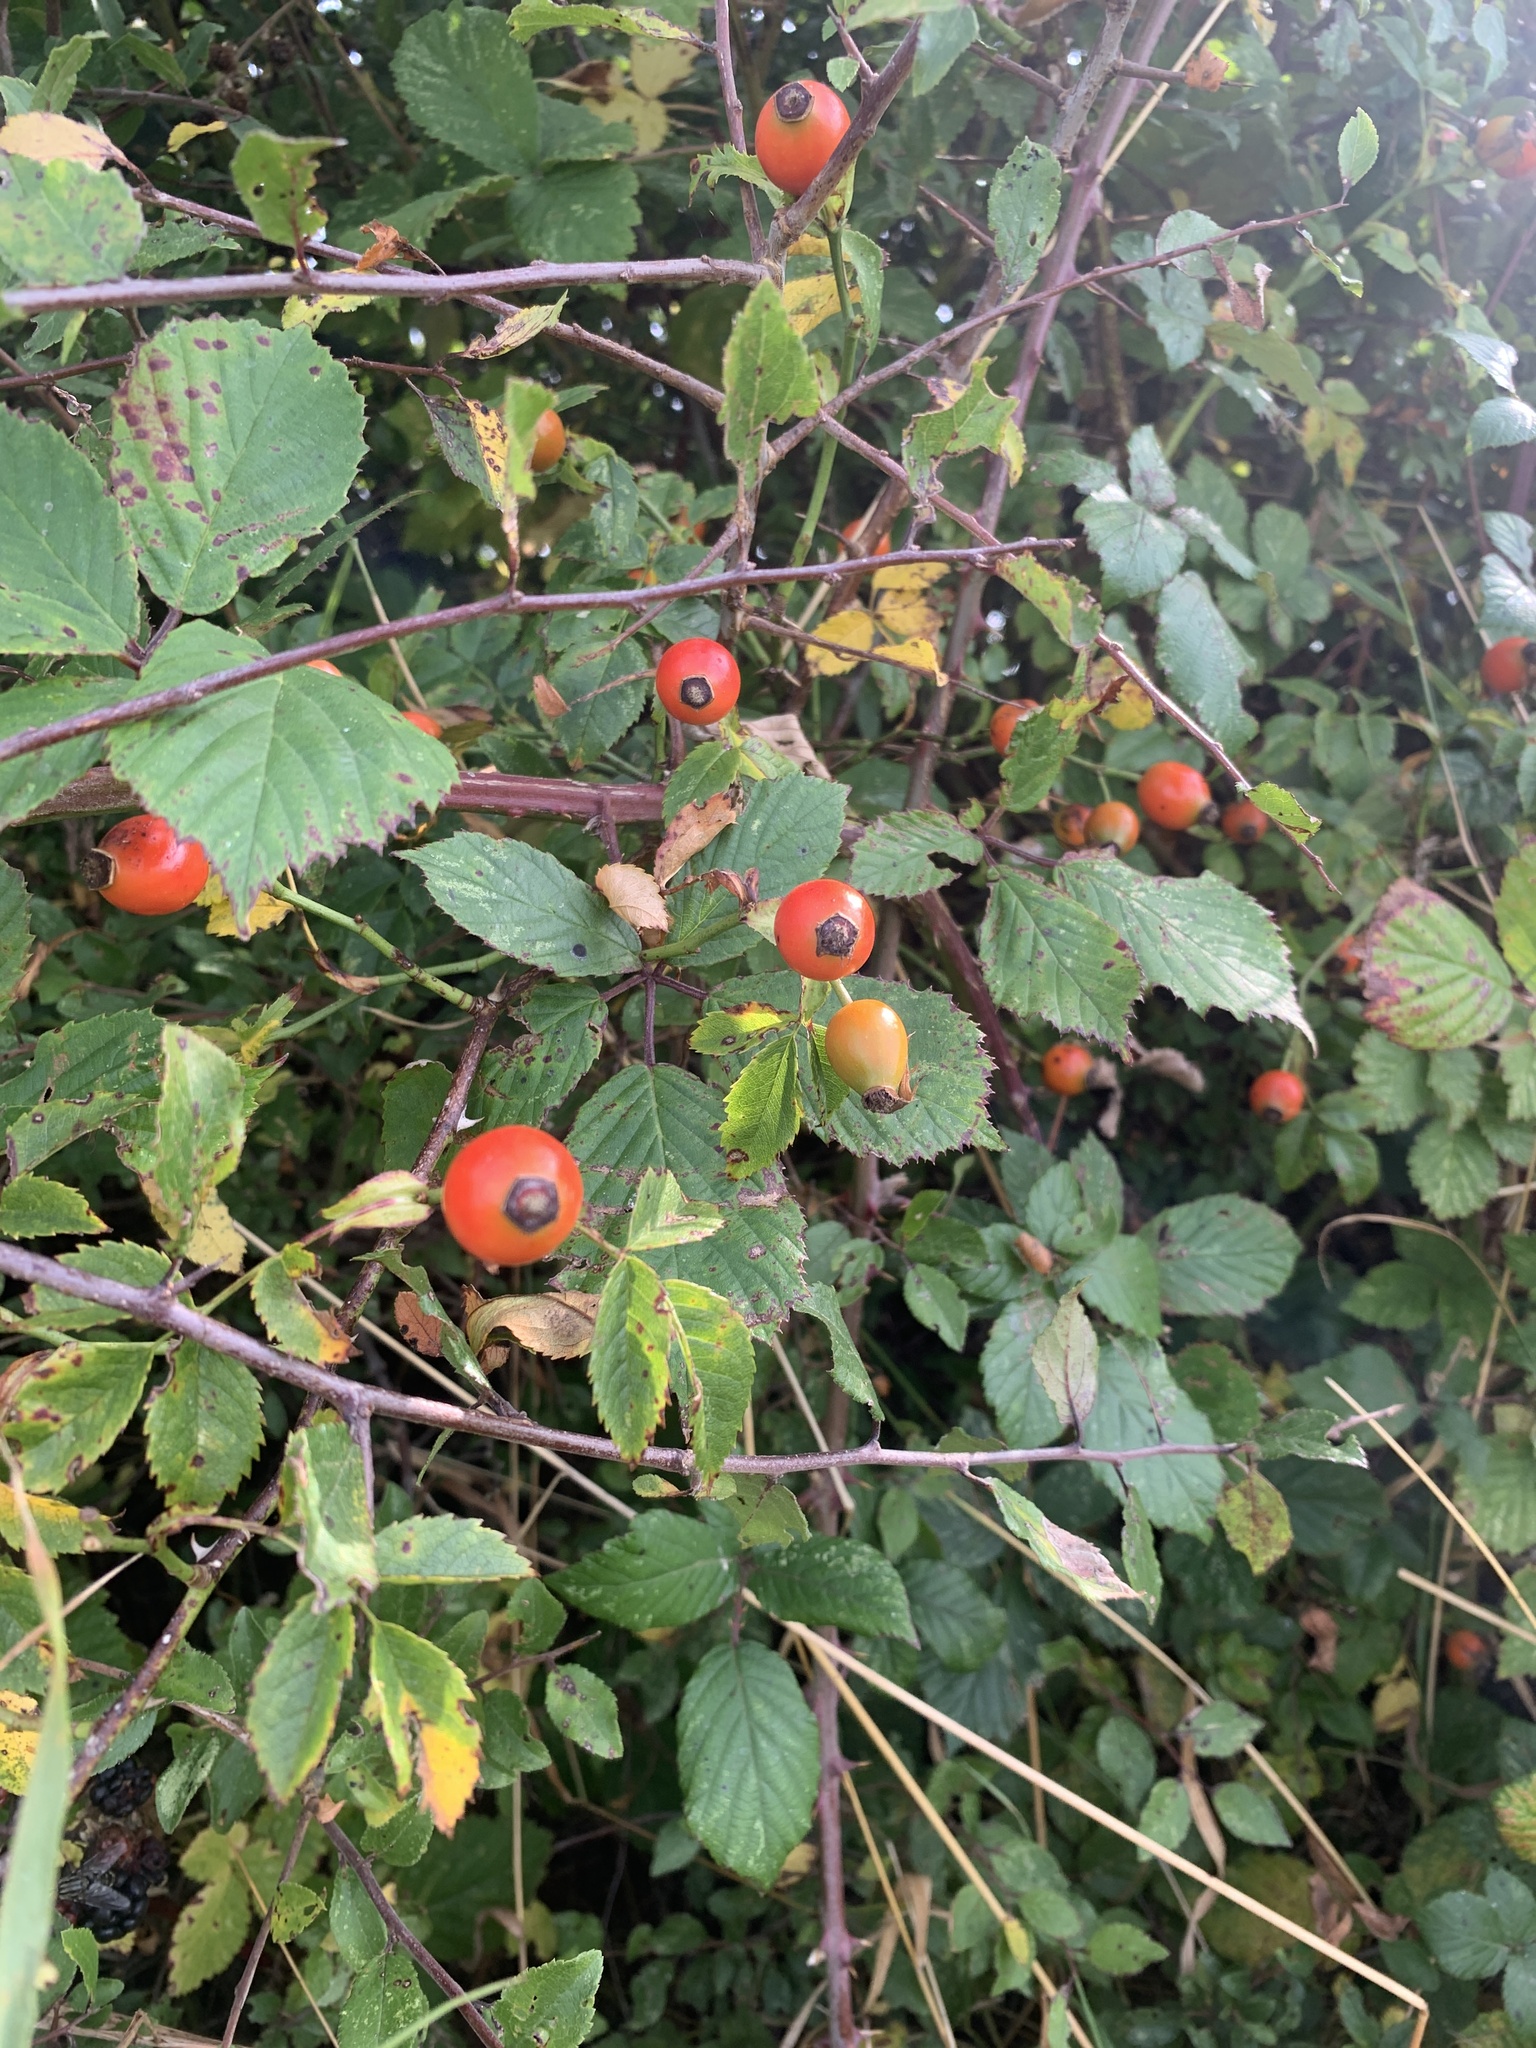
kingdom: Plantae
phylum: Tracheophyta
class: Magnoliopsida
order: Rosales
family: Rosaceae
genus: Rosa
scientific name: Rosa canina
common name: Dog rose
